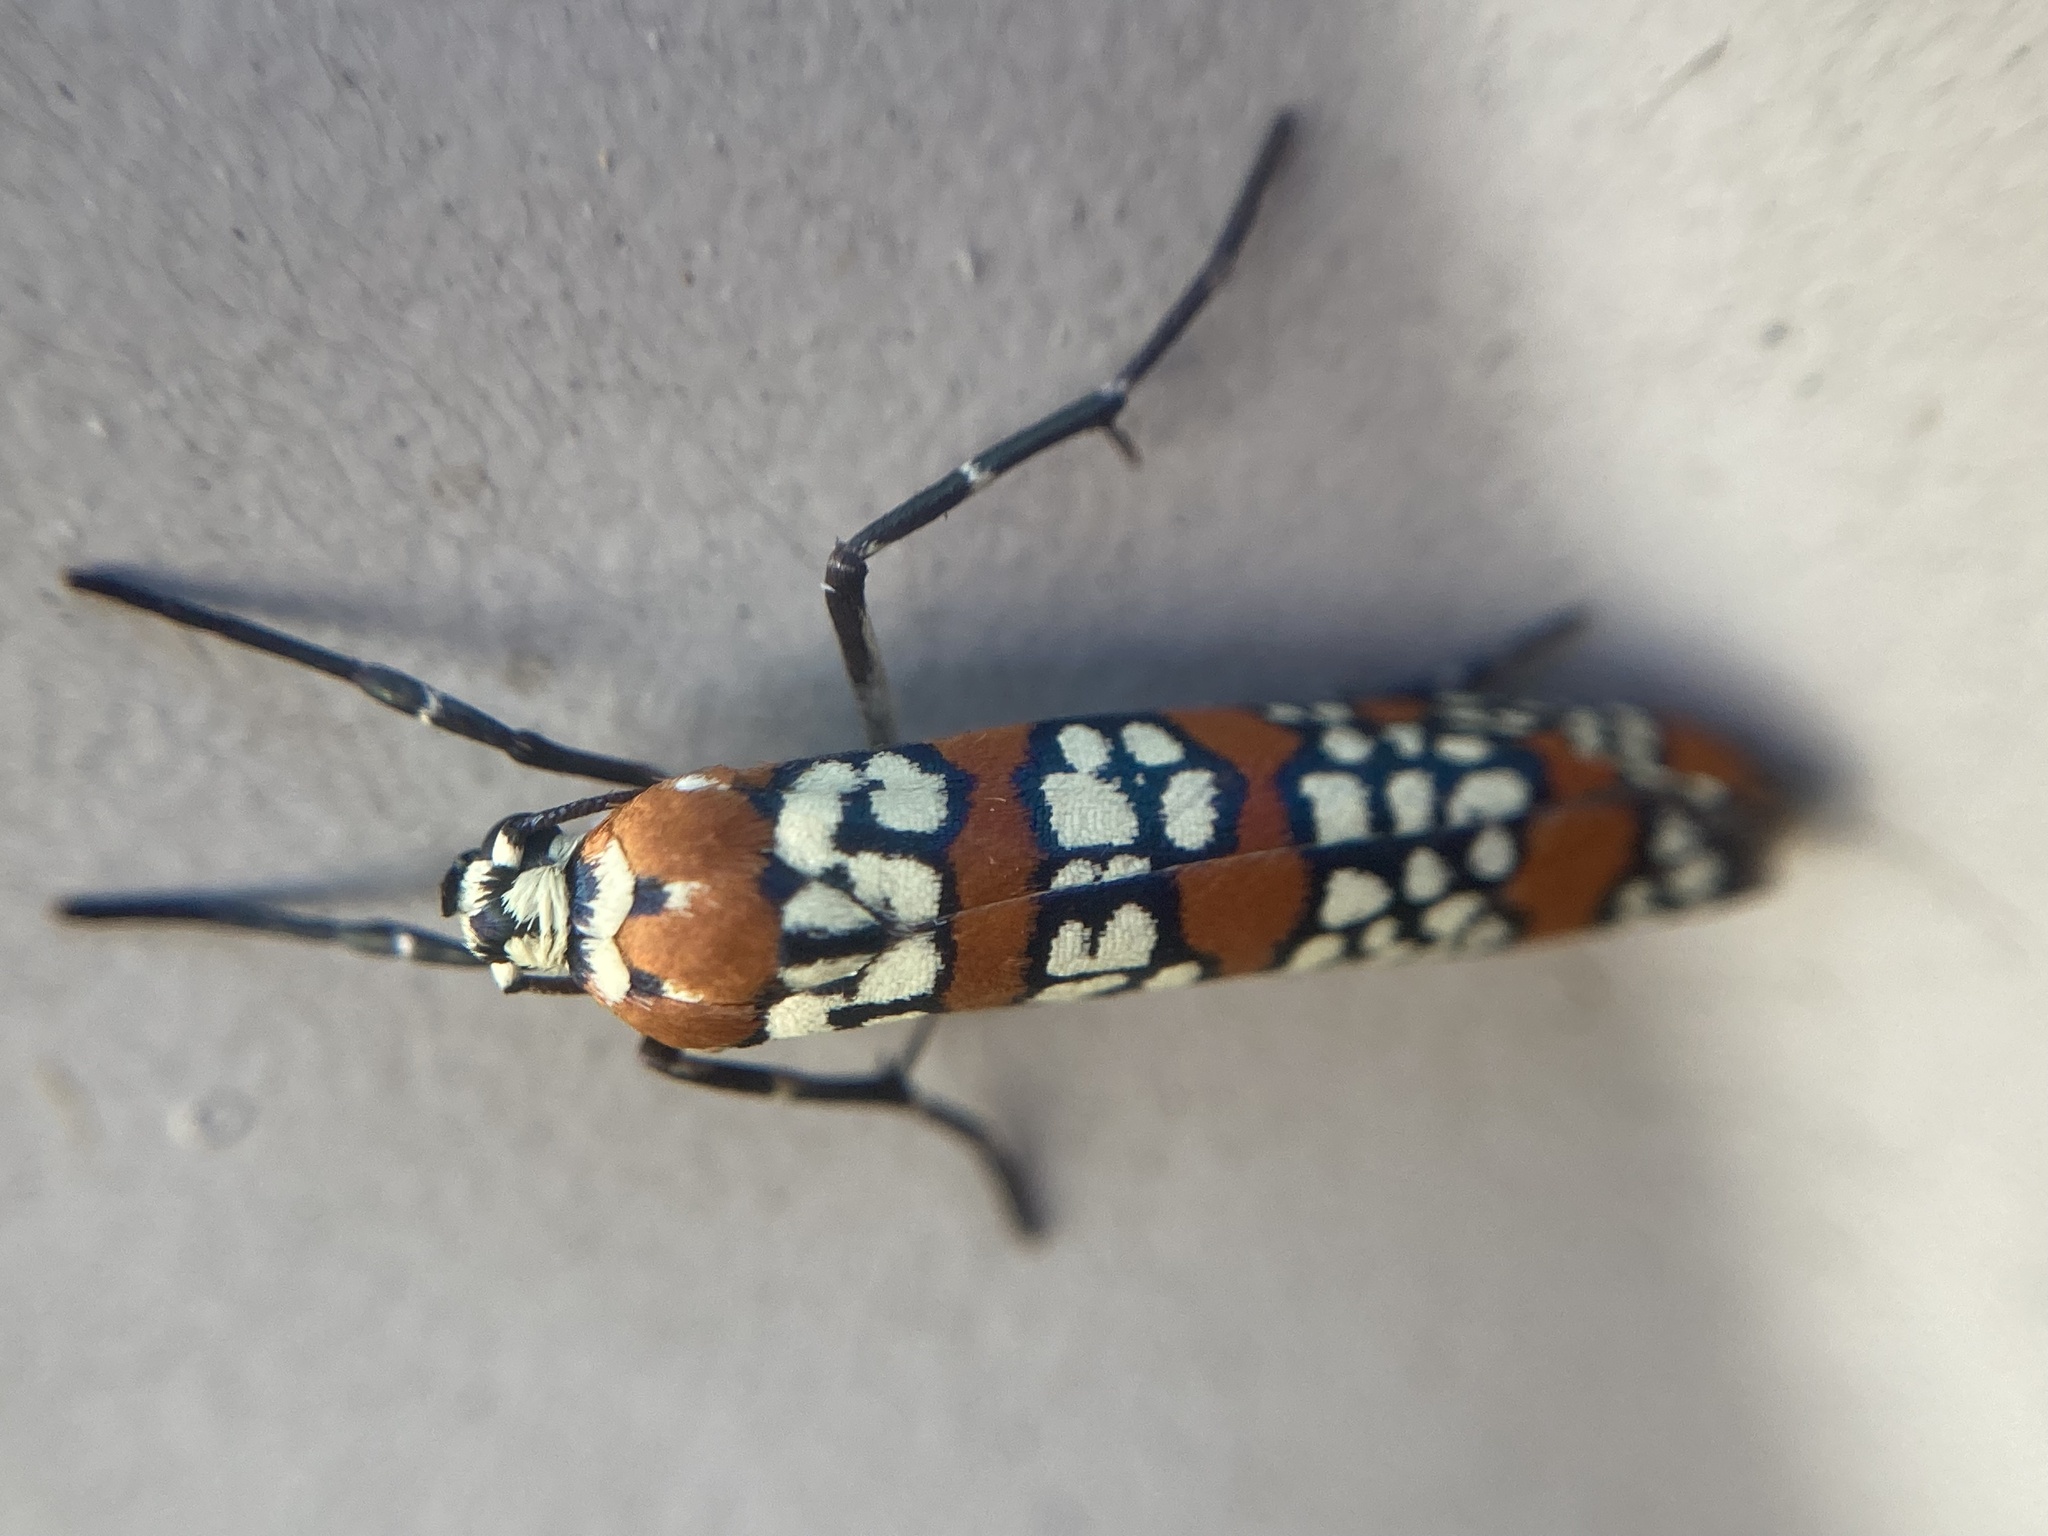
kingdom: Animalia
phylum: Arthropoda
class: Insecta
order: Lepidoptera
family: Attevidae
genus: Atteva
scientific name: Atteva punctella
